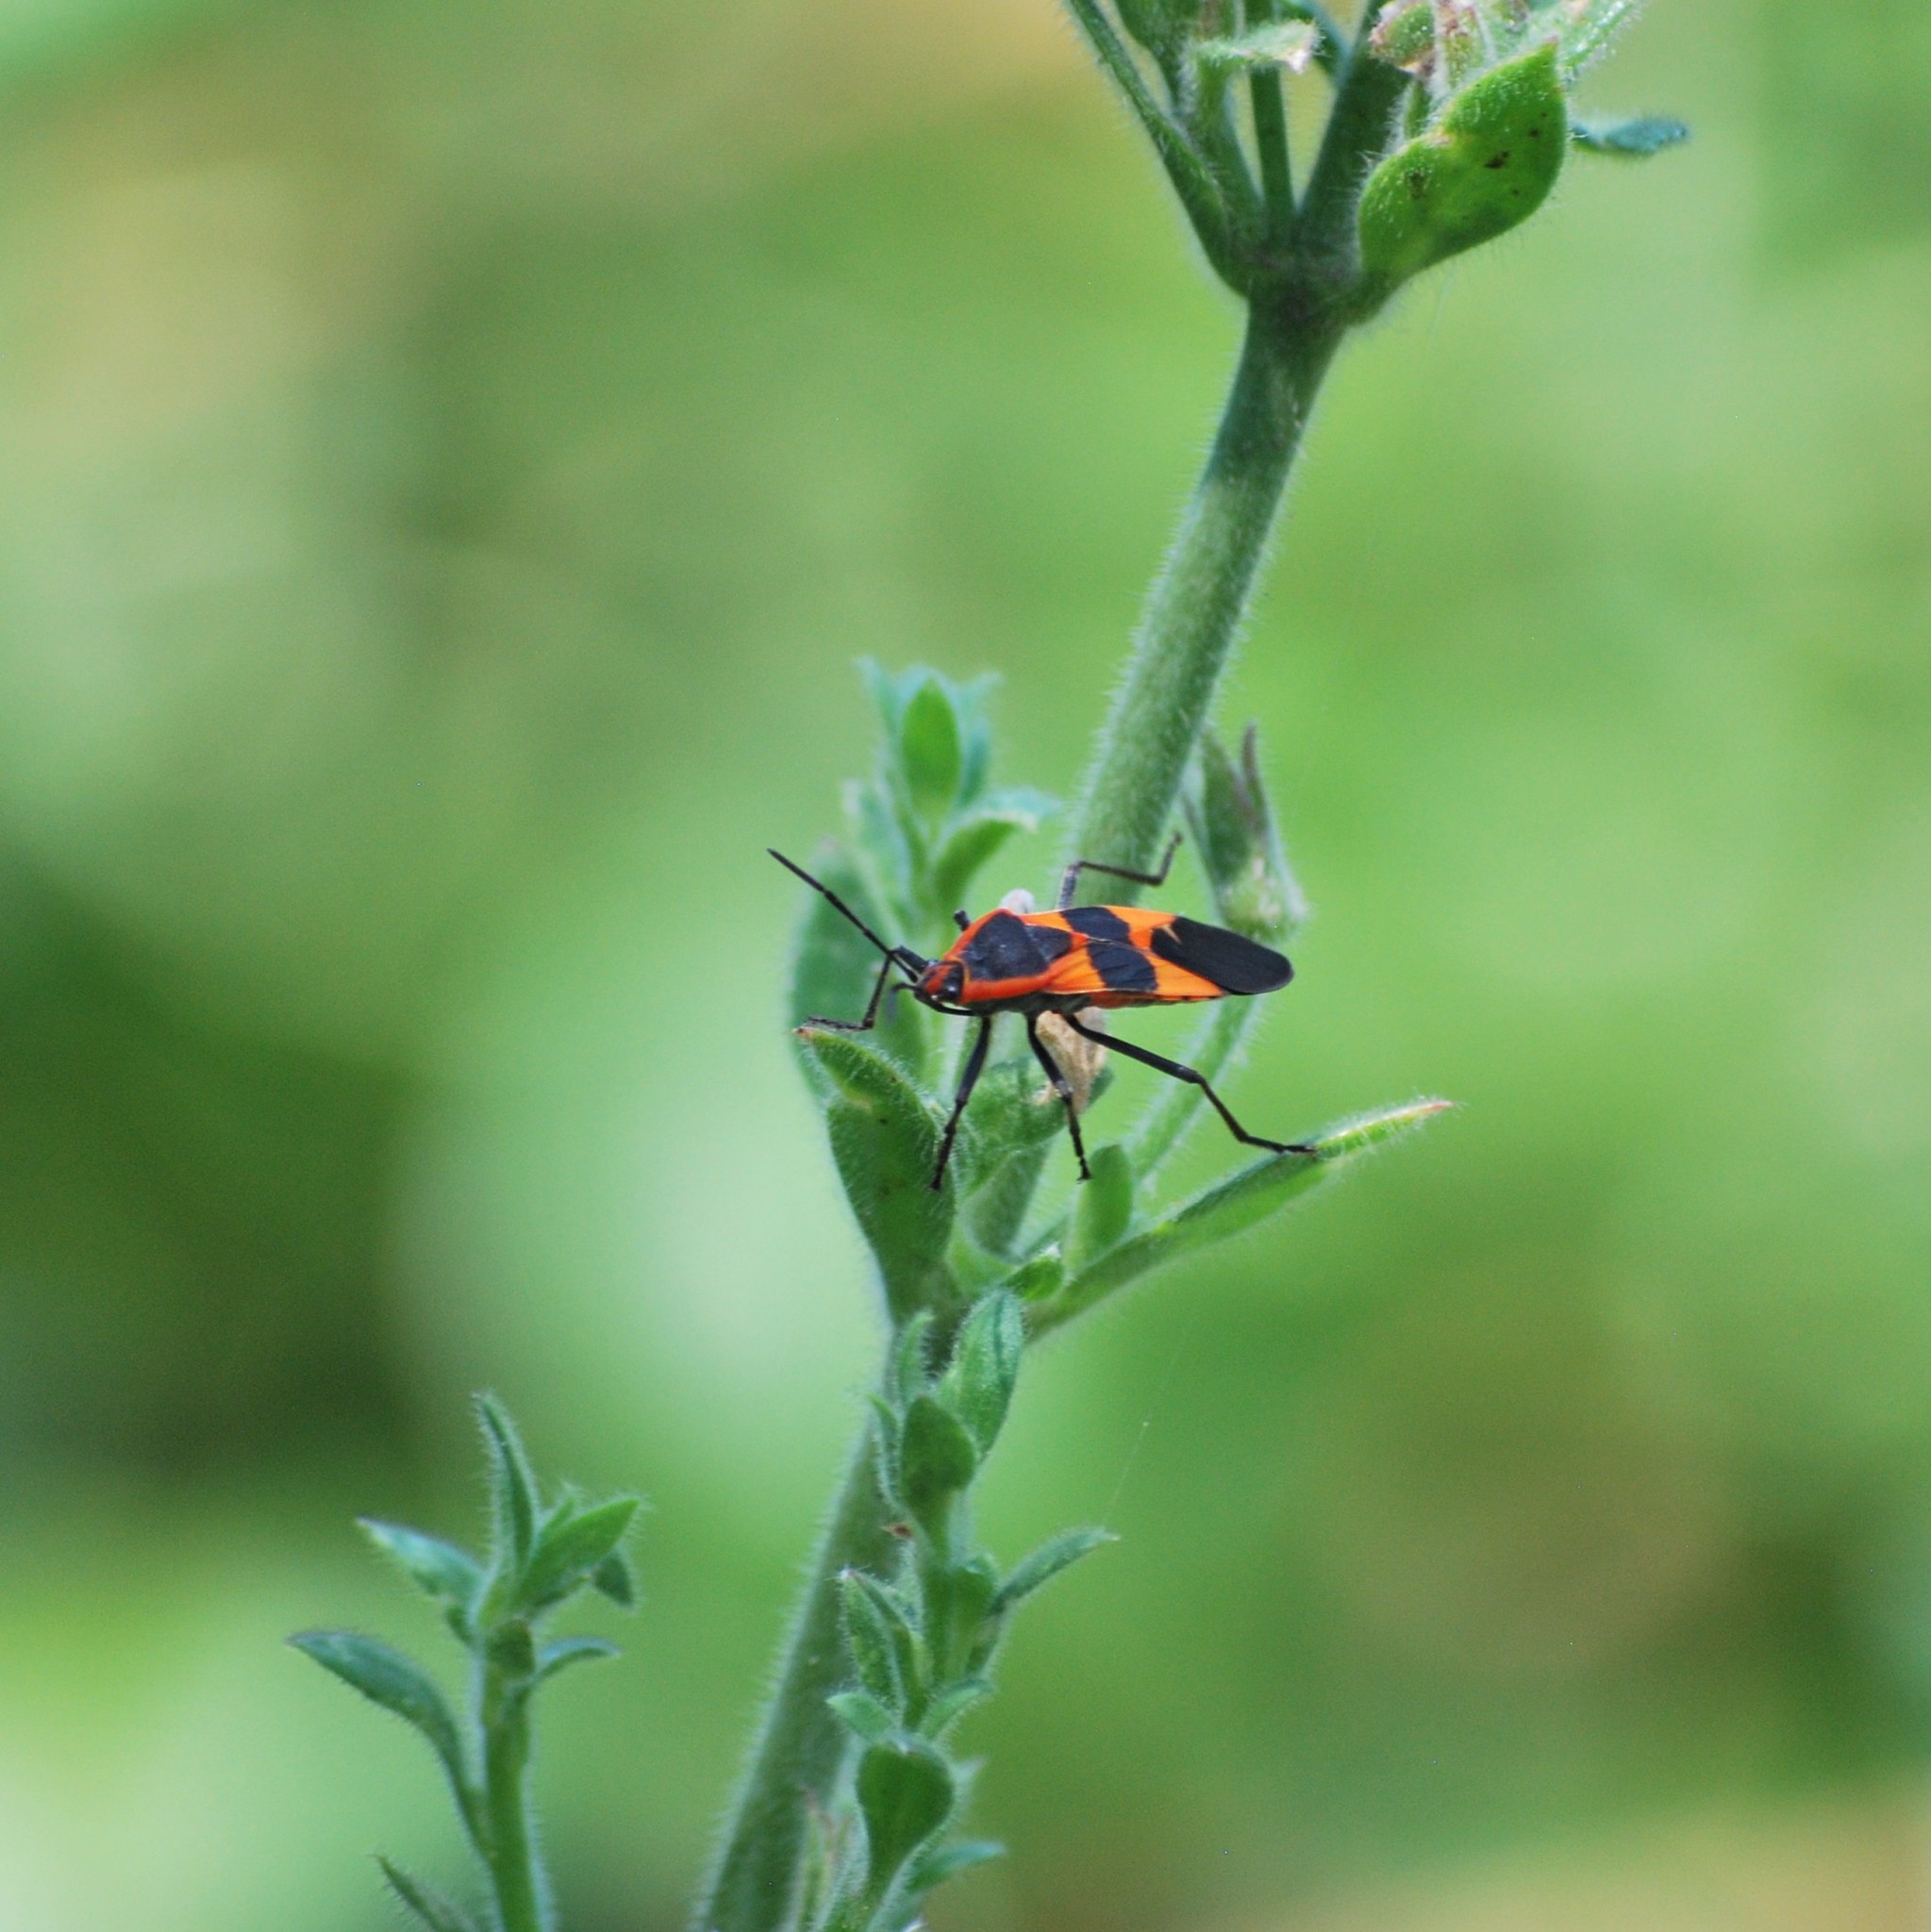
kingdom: Animalia
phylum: Arthropoda
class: Insecta
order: Hemiptera
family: Lygaeidae
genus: Oncopeltus
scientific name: Oncopeltus fasciatus
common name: Large milkweed bug
